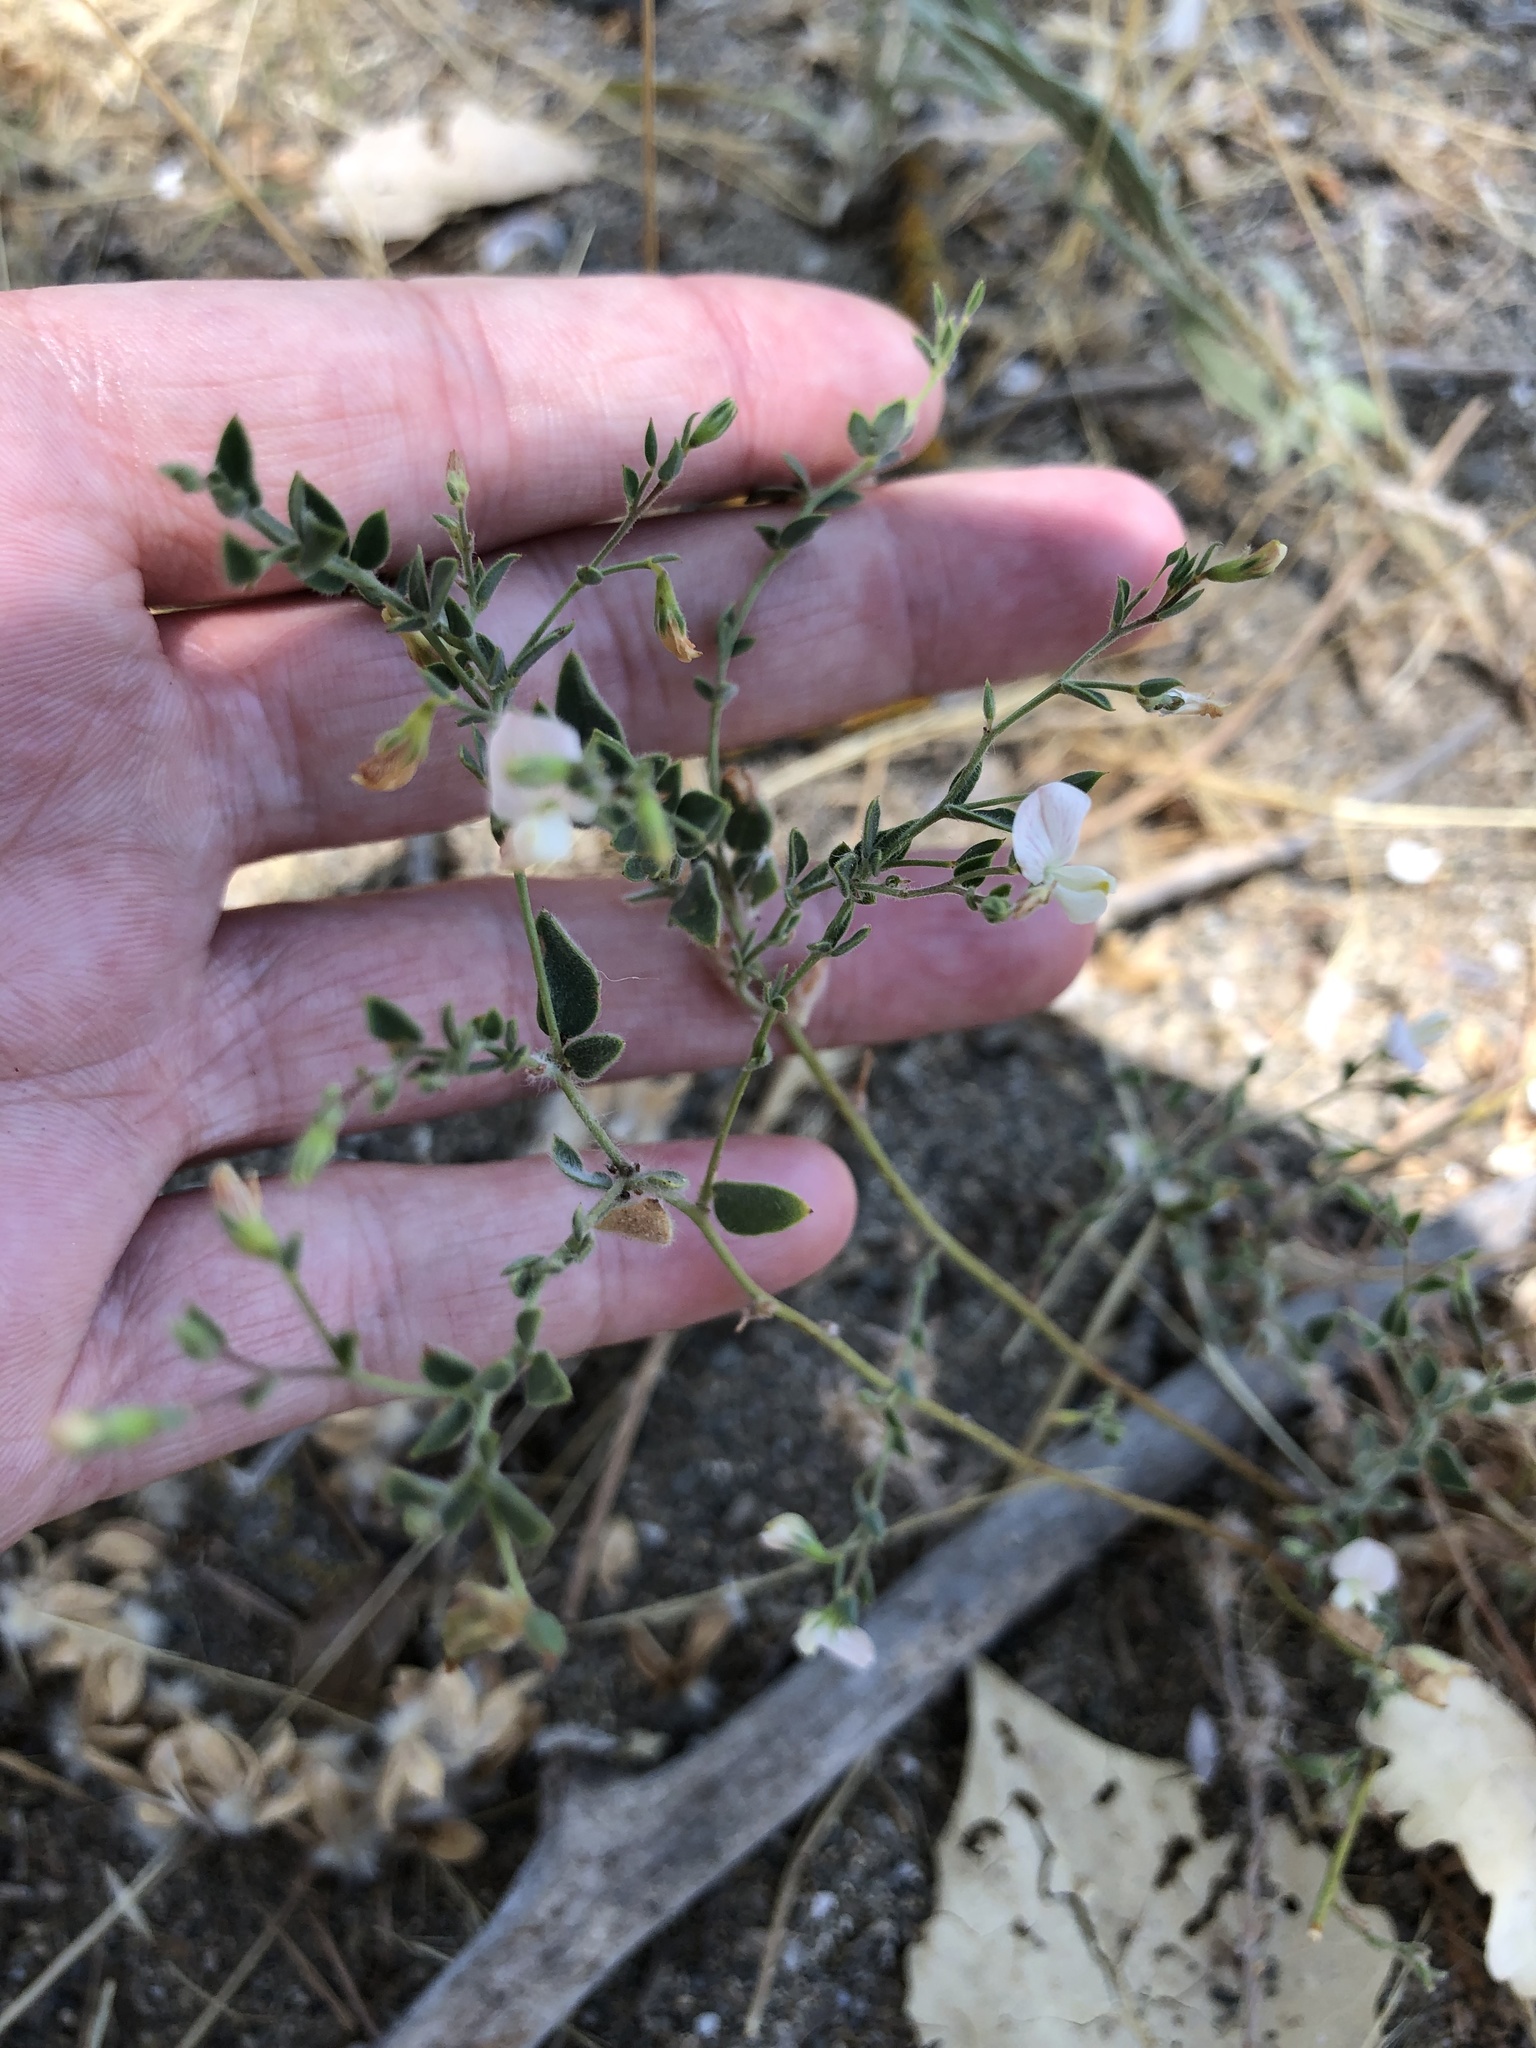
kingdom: Plantae
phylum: Tracheophyta
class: Magnoliopsida
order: Fabales
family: Fabaceae
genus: Acmispon
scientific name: Acmispon americanus
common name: American bird's-foot trefoil
